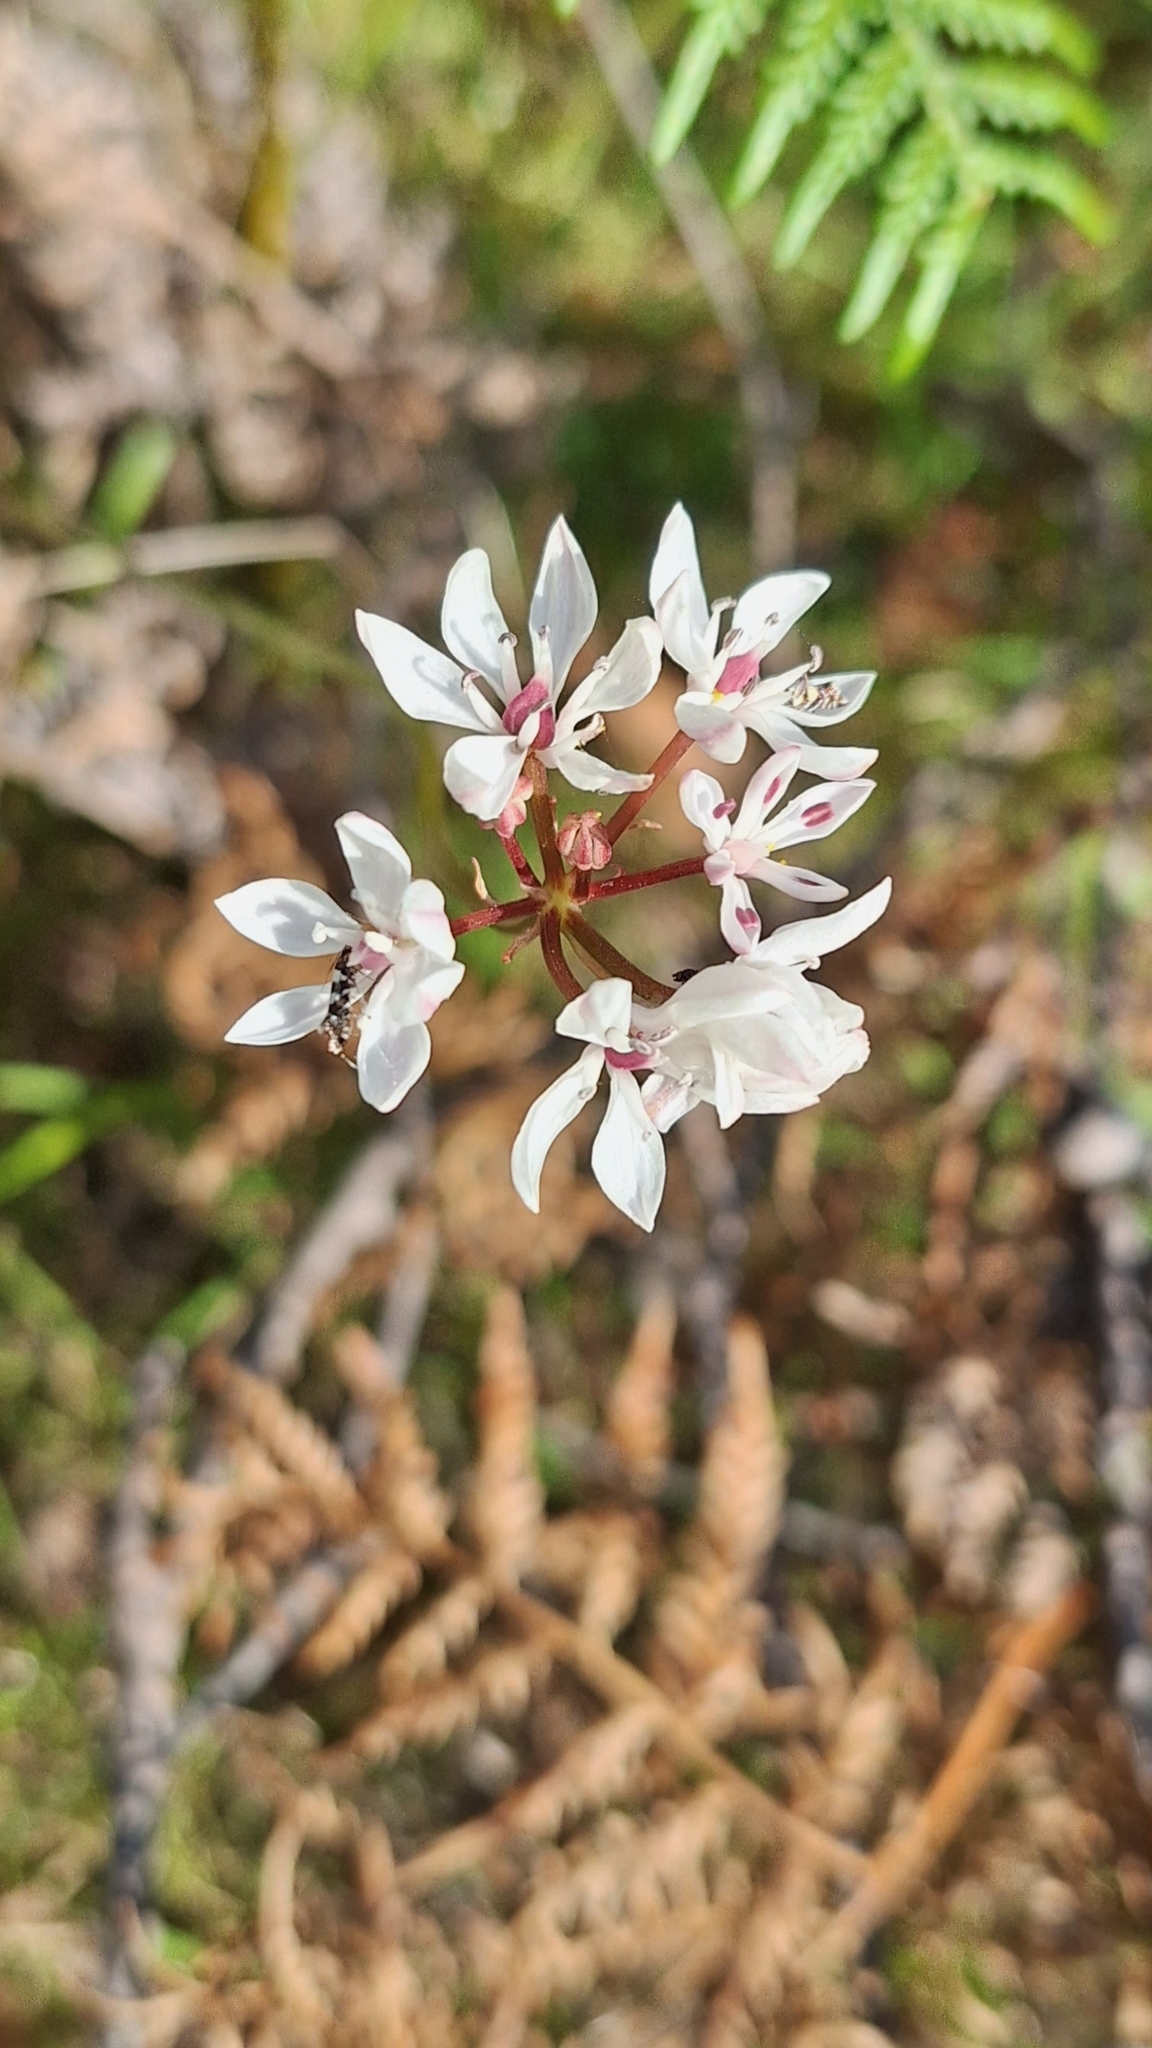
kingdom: Plantae
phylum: Tracheophyta
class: Liliopsida
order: Liliales
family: Colchicaceae
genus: Burchardia
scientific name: Burchardia umbellata
